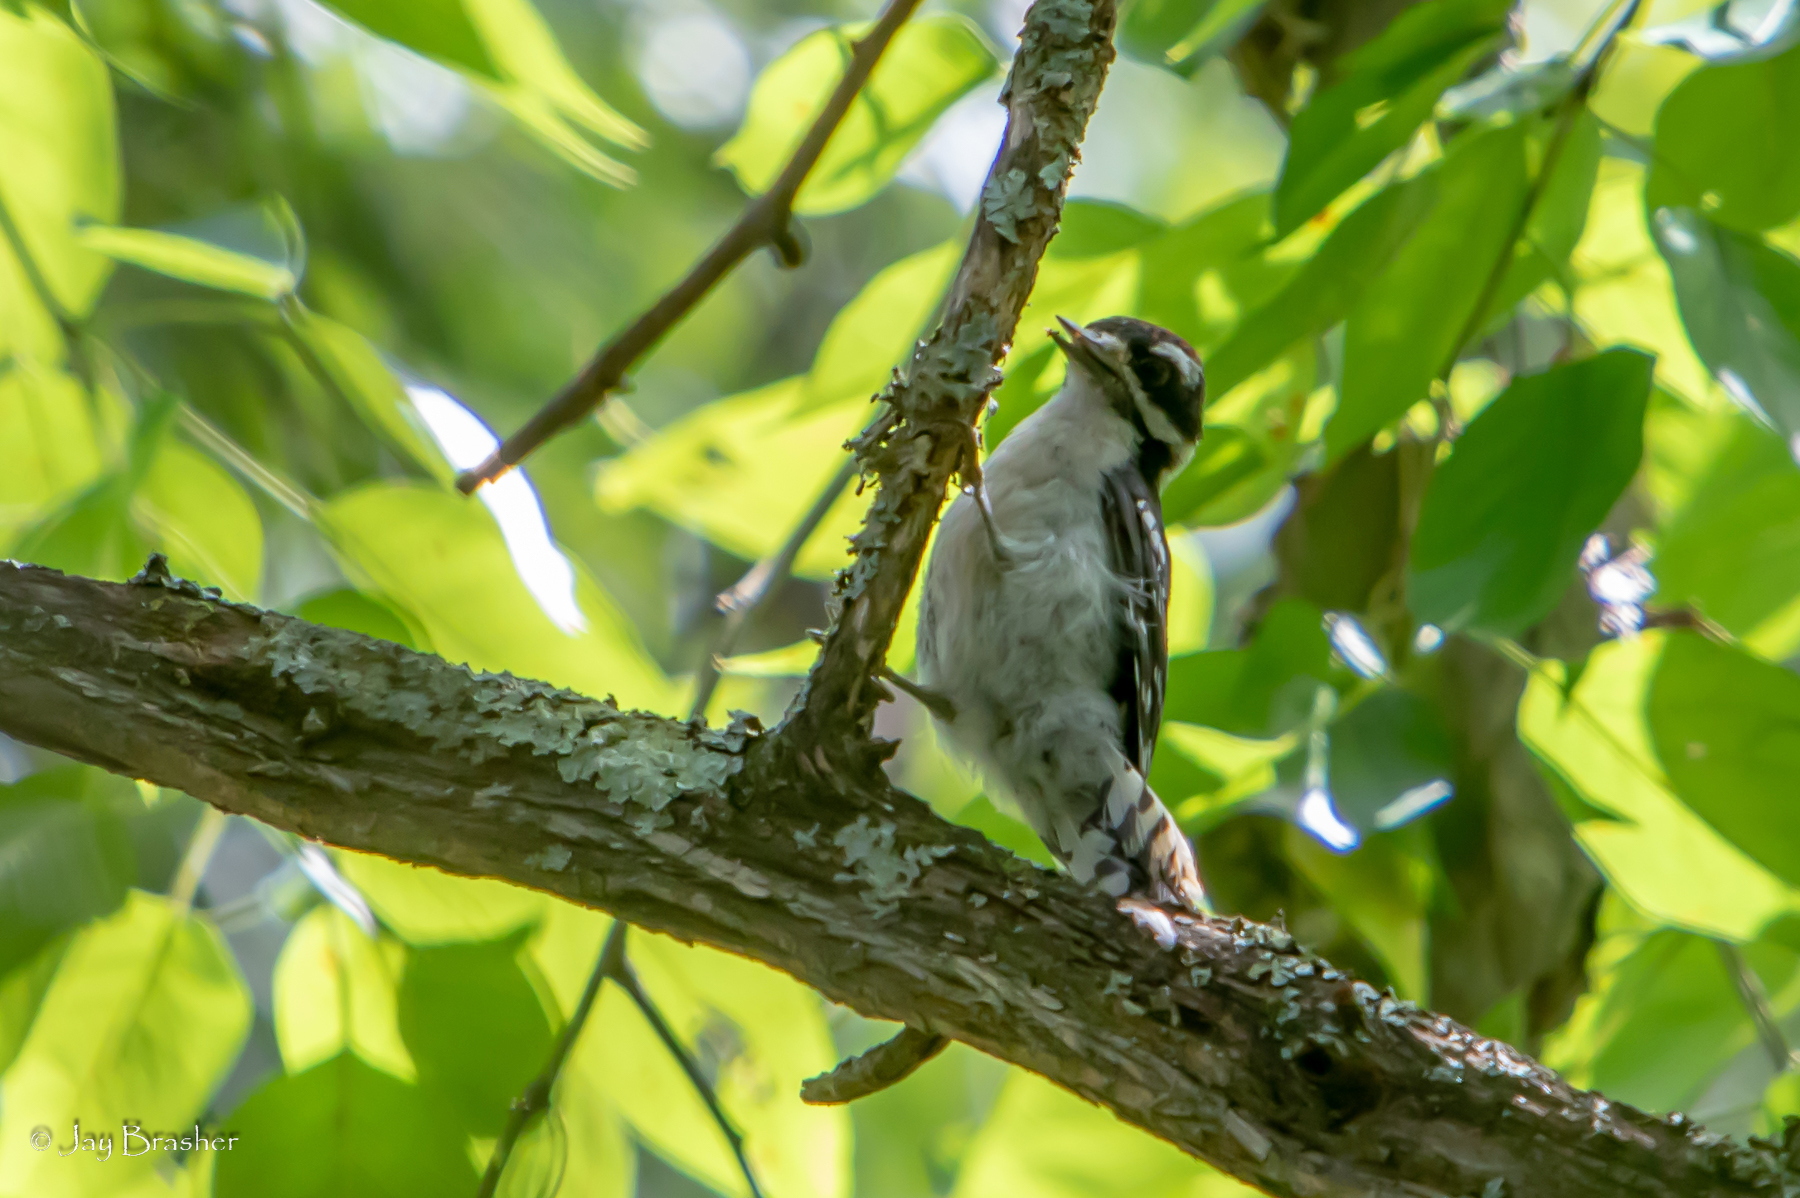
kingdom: Animalia
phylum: Chordata
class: Aves
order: Piciformes
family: Picidae
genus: Dryobates
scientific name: Dryobates pubescens
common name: Downy woodpecker
